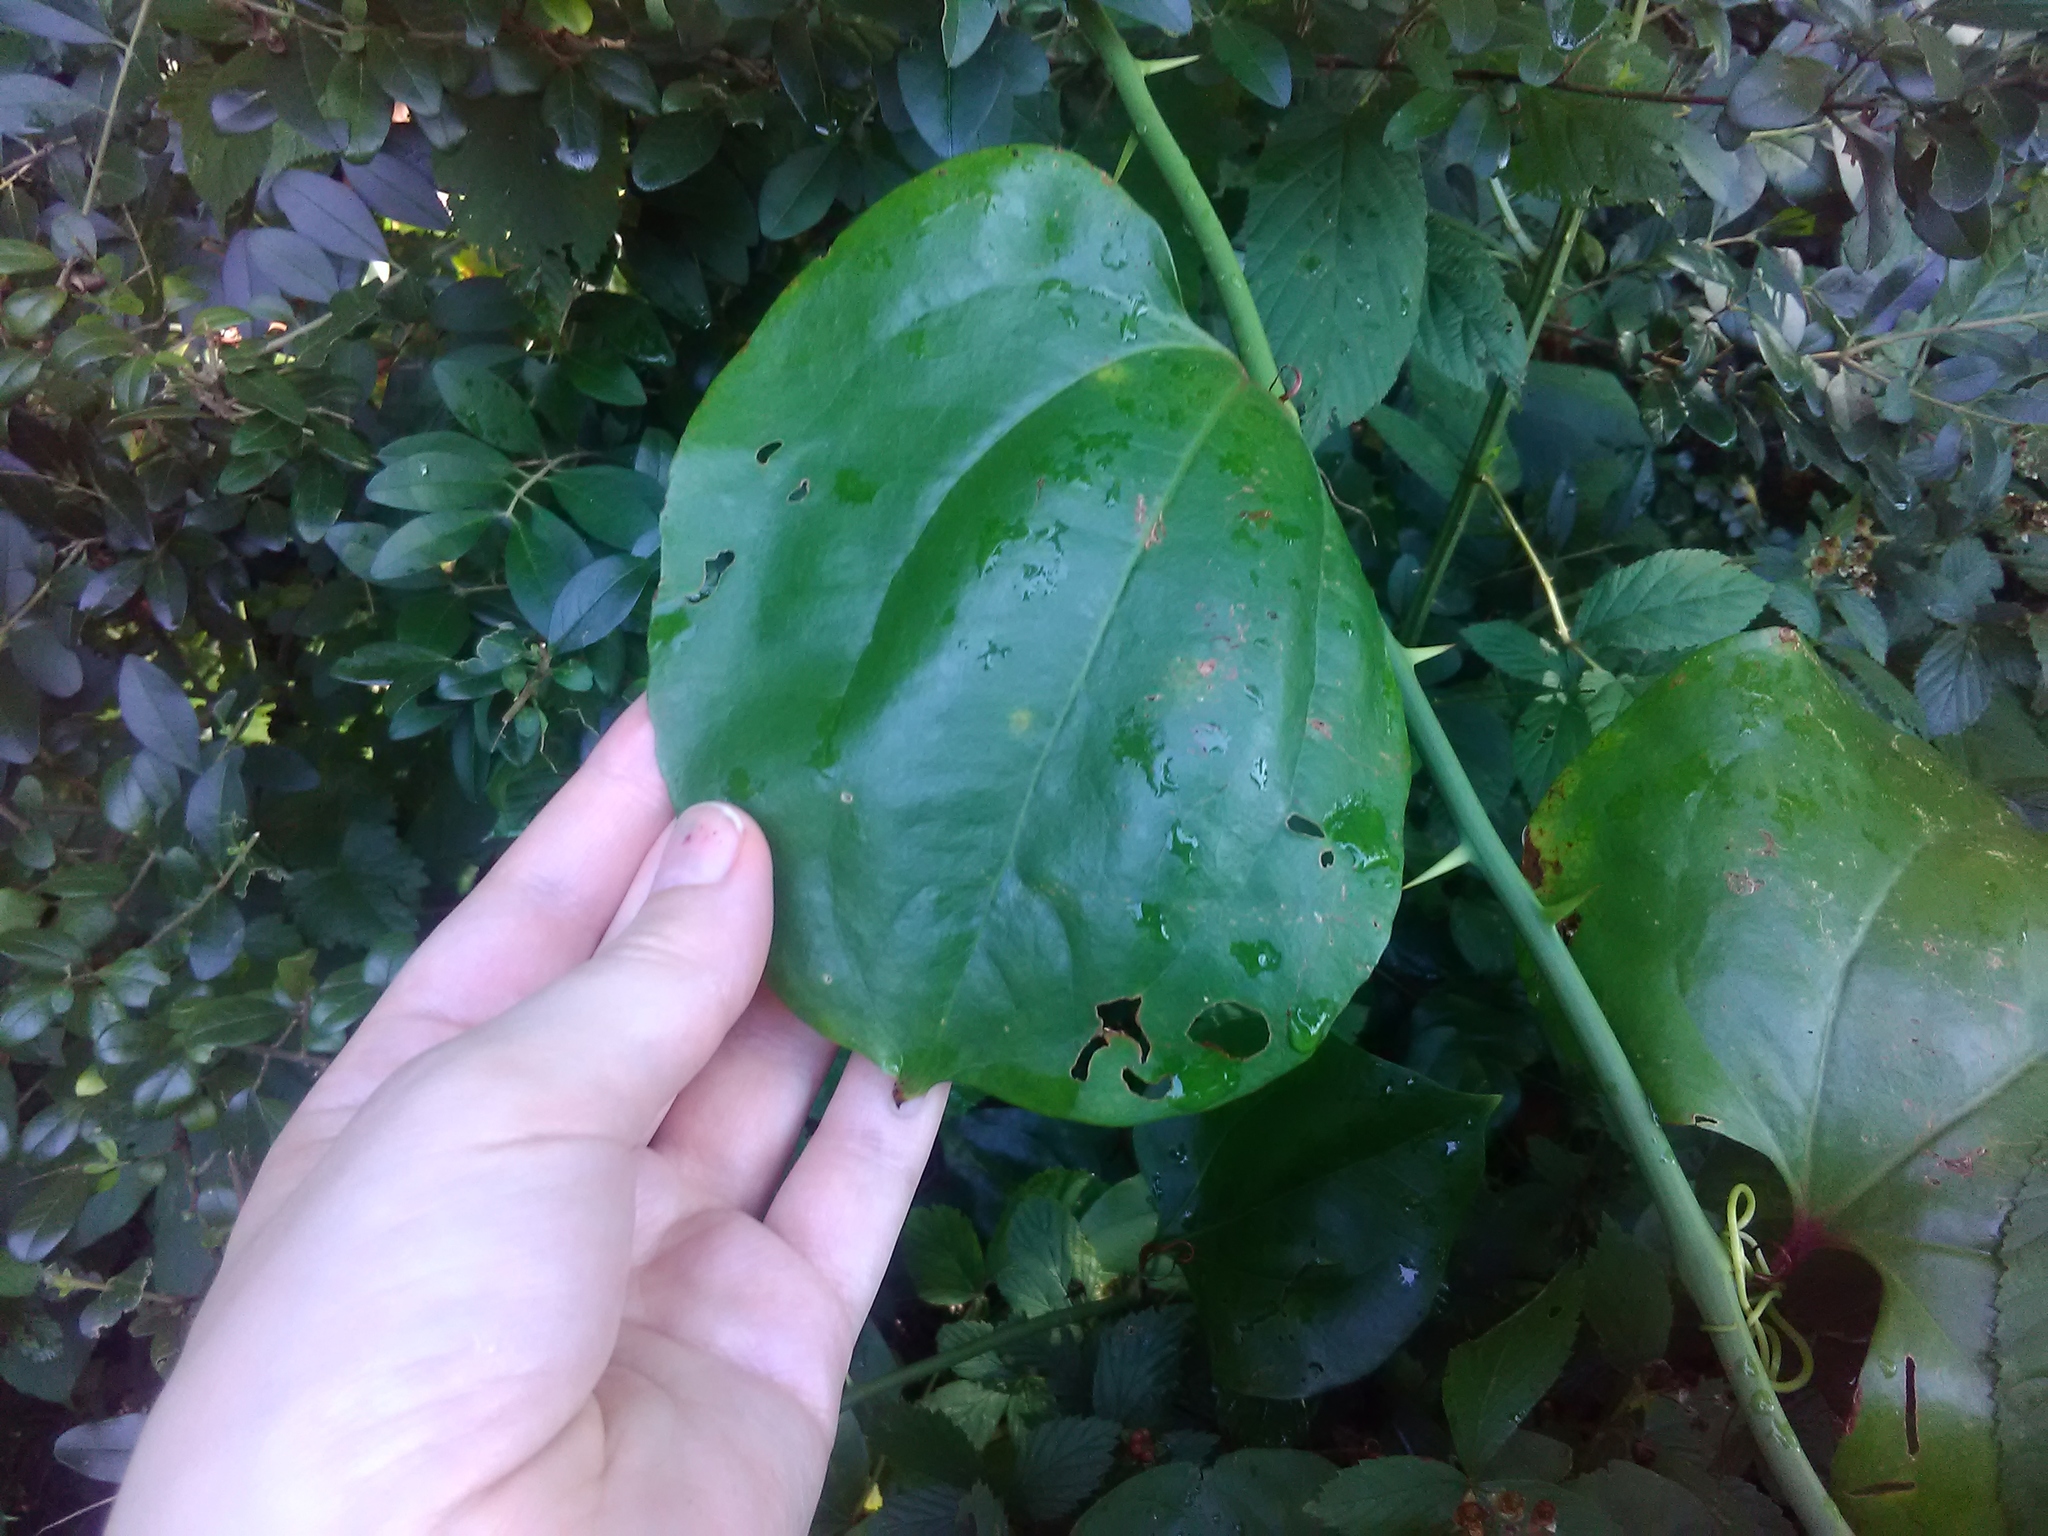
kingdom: Plantae
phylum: Tracheophyta
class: Liliopsida
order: Liliales
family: Smilacaceae
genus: Smilax
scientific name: Smilax rotundifolia
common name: Bullbriar
